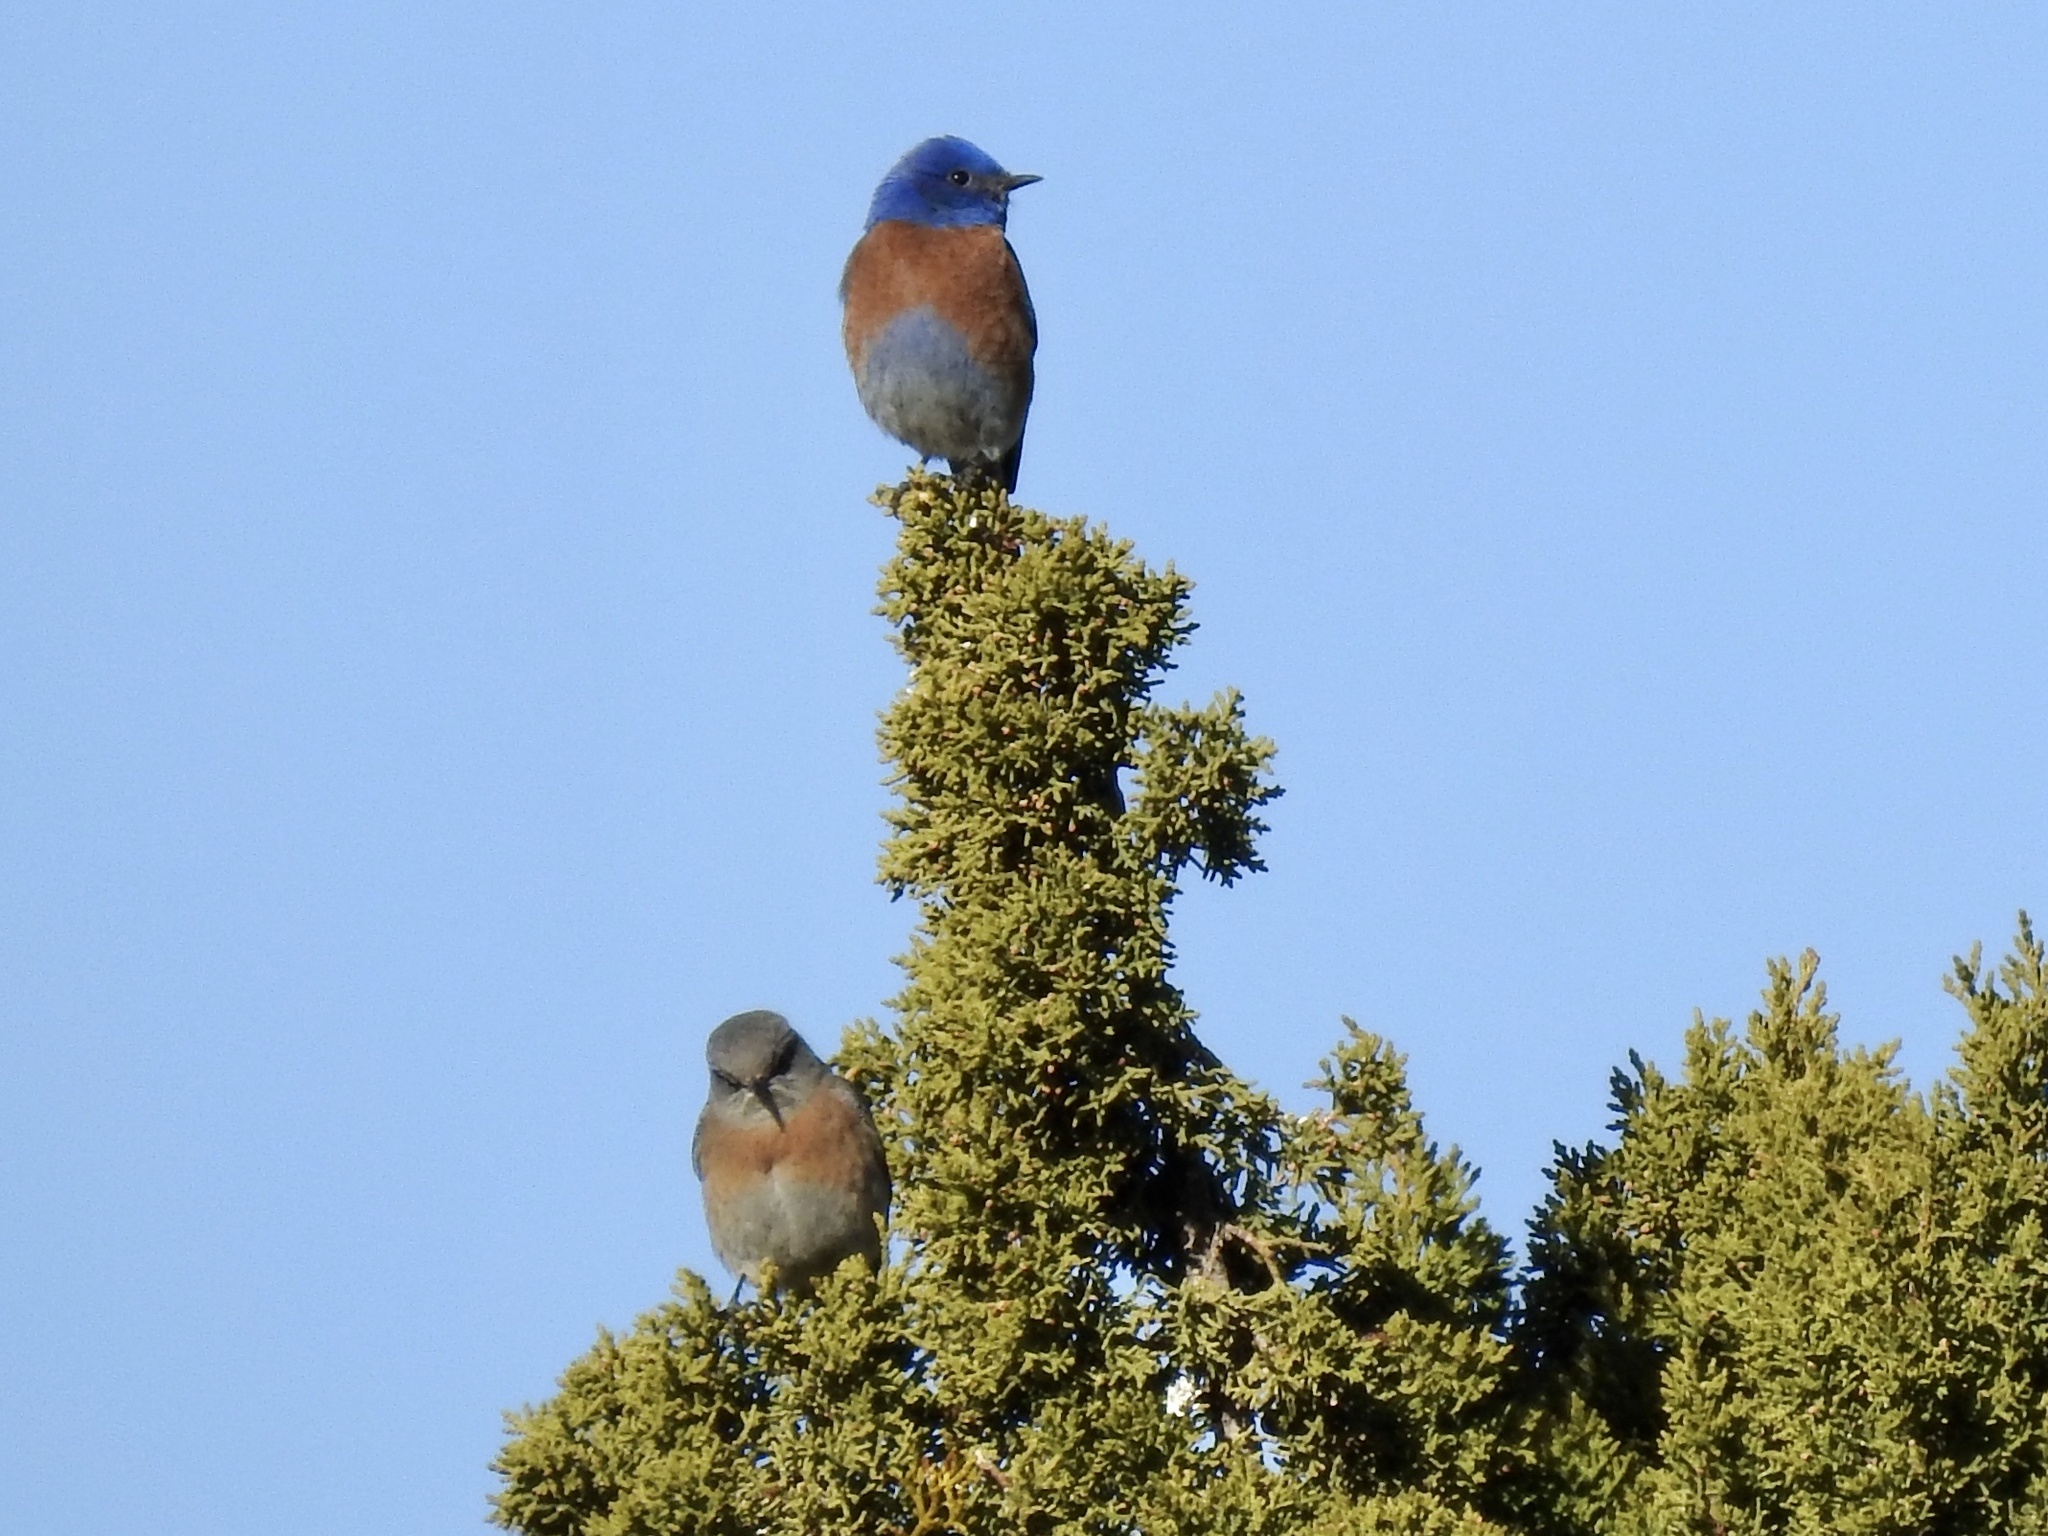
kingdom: Animalia
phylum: Chordata
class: Aves
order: Passeriformes
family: Turdidae
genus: Sialia
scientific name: Sialia mexicana
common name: Western bluebird
